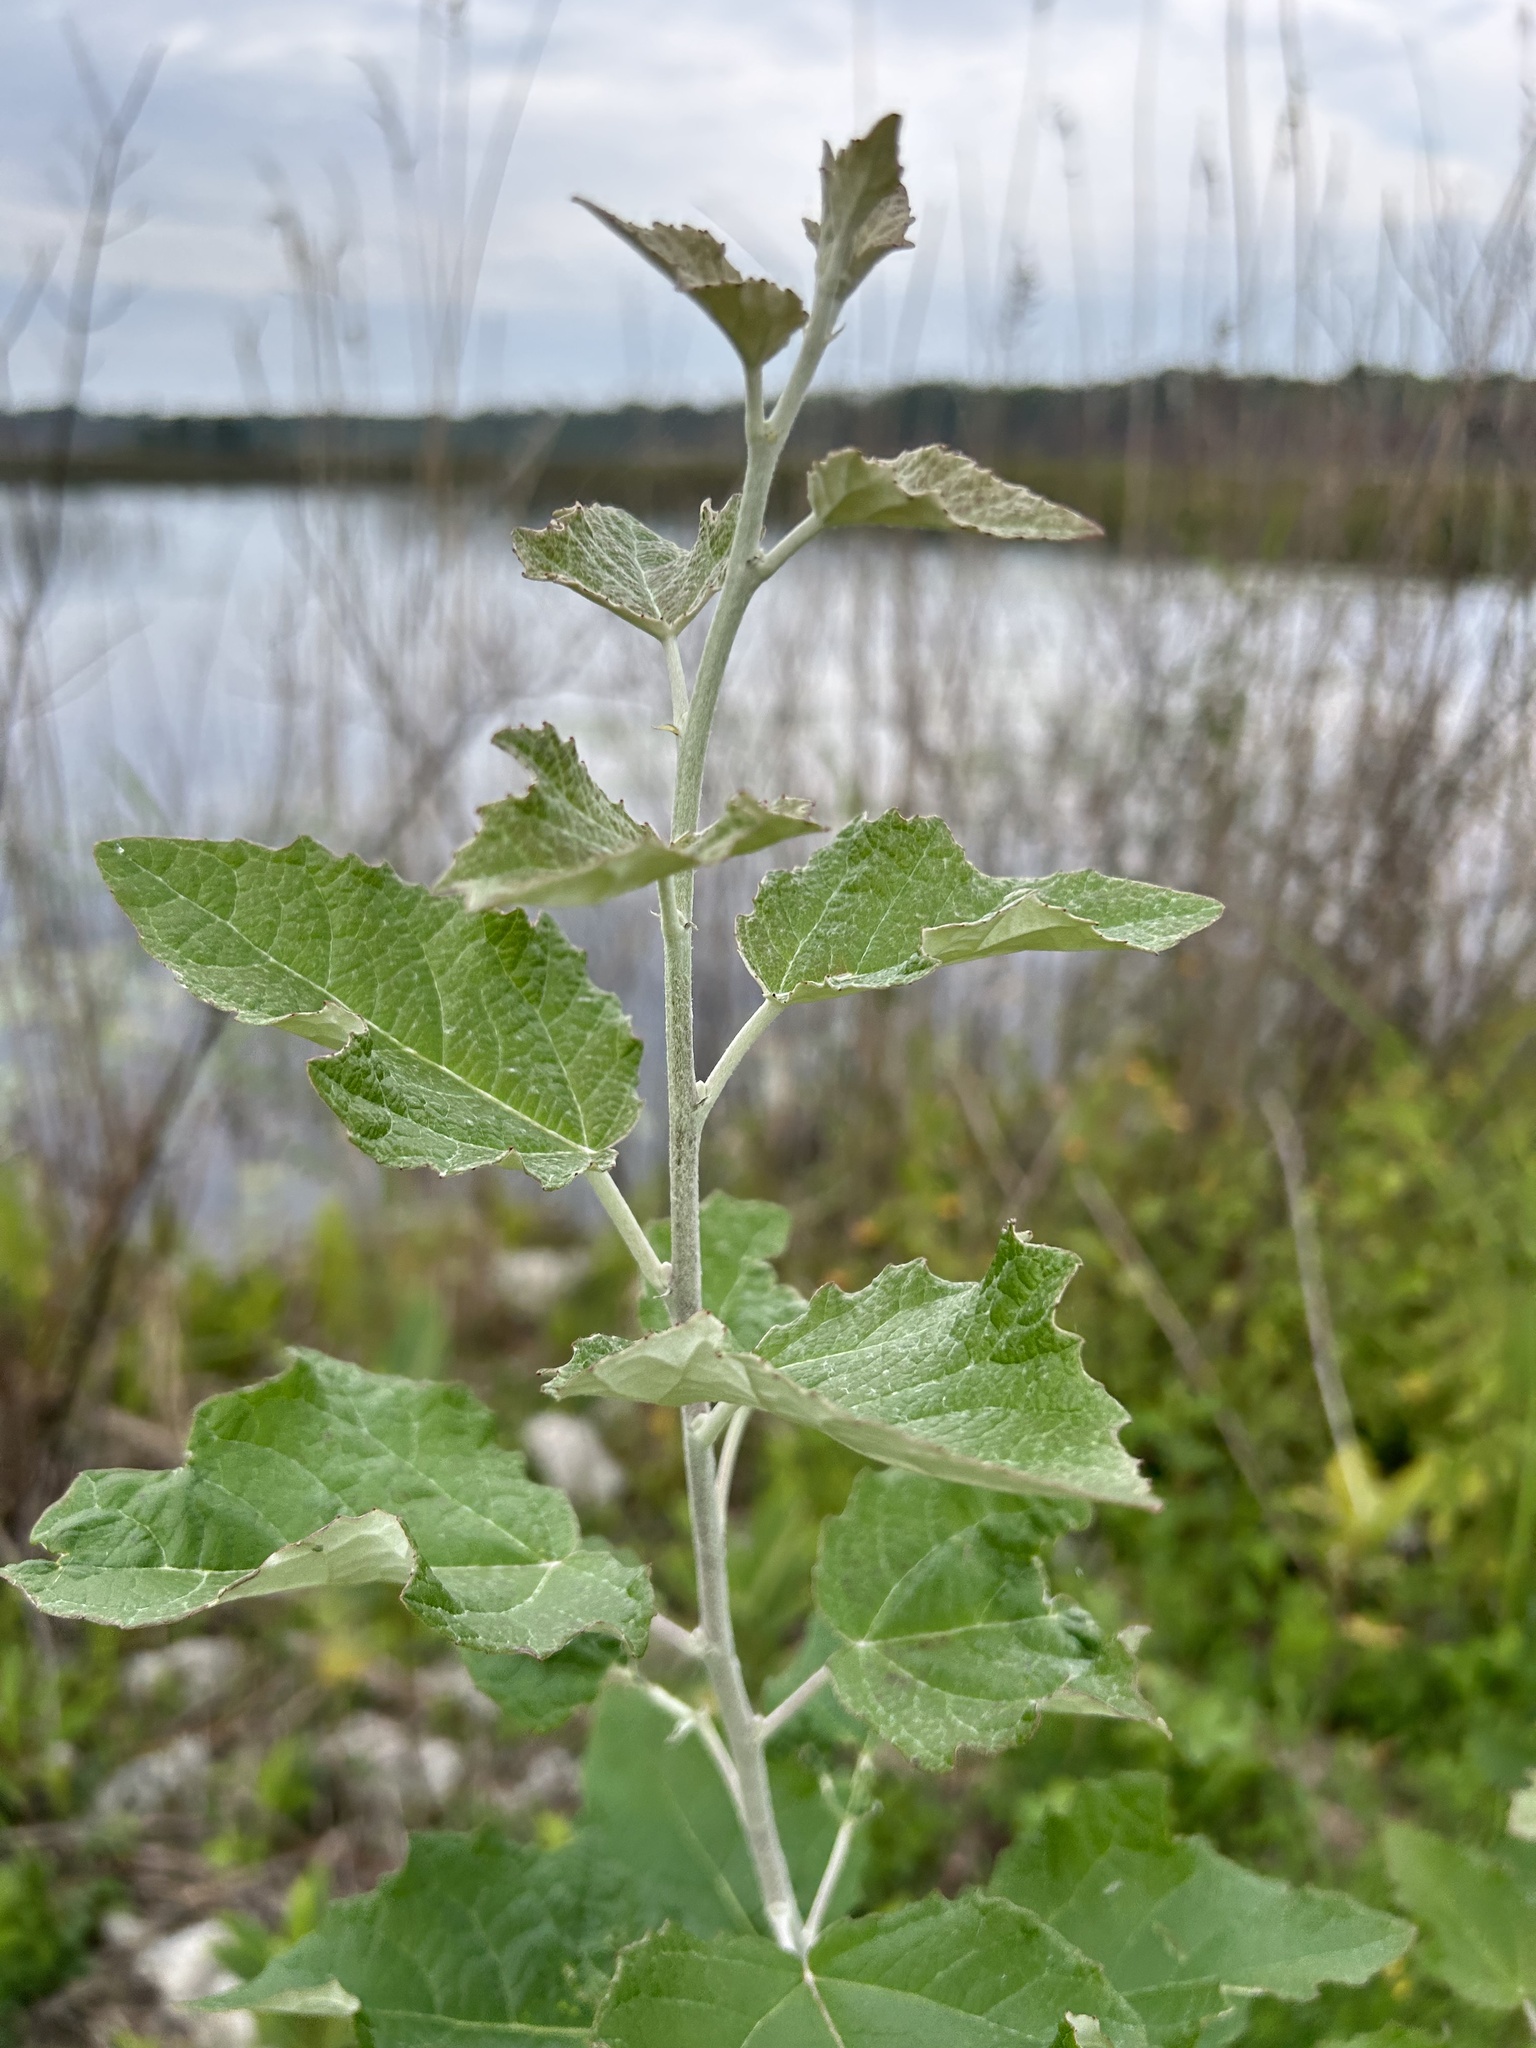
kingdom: Plantae
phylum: Tracheophyta
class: Magnoliopsida
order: Malpighiales
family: Salicaceae
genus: Populus
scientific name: Populus alba
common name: White poplar
